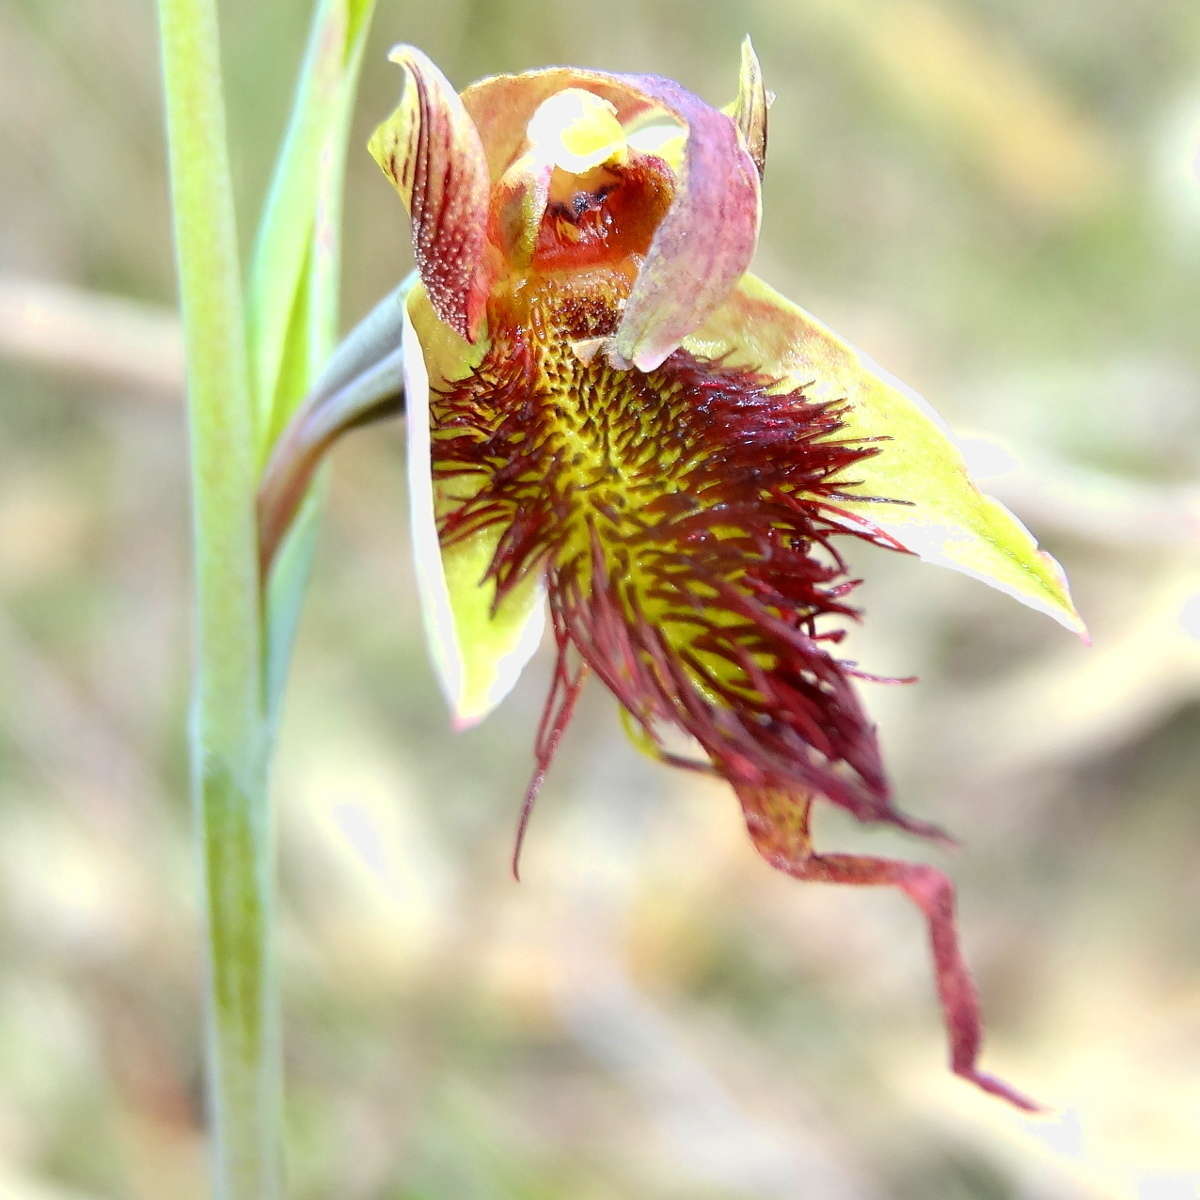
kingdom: Plantae
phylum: Tracheophyta
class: Liliopsida
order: Asparagales
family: Orchidaceae
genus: Calochilus
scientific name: Calochilus paludosus
